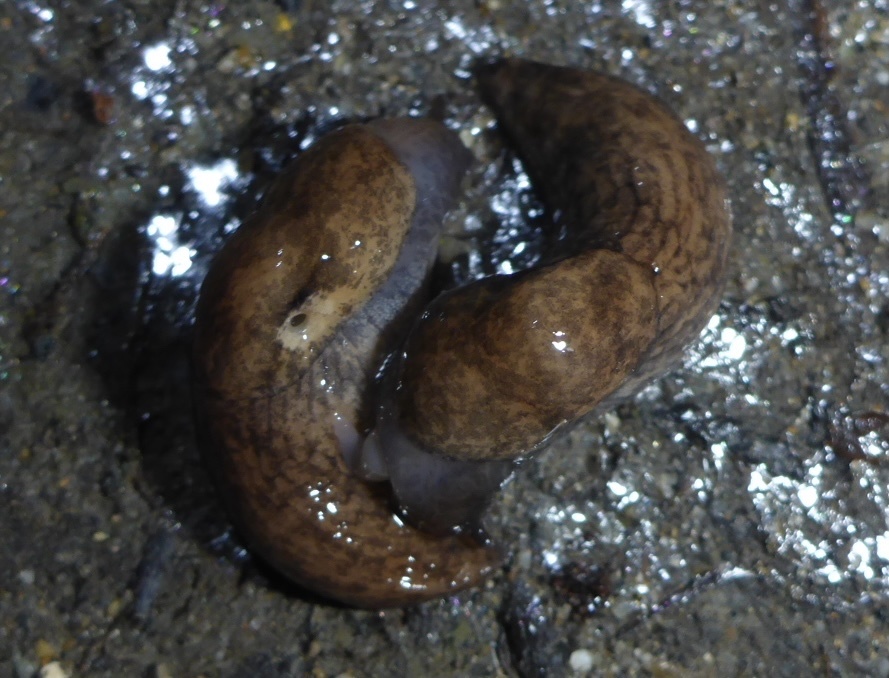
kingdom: Animalia
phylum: Mollusca
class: Gastropoda
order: Stylommatophora
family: Agriolimacidae
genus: Deroceras
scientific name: Deroceras reticulatum
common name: Gray field slug
